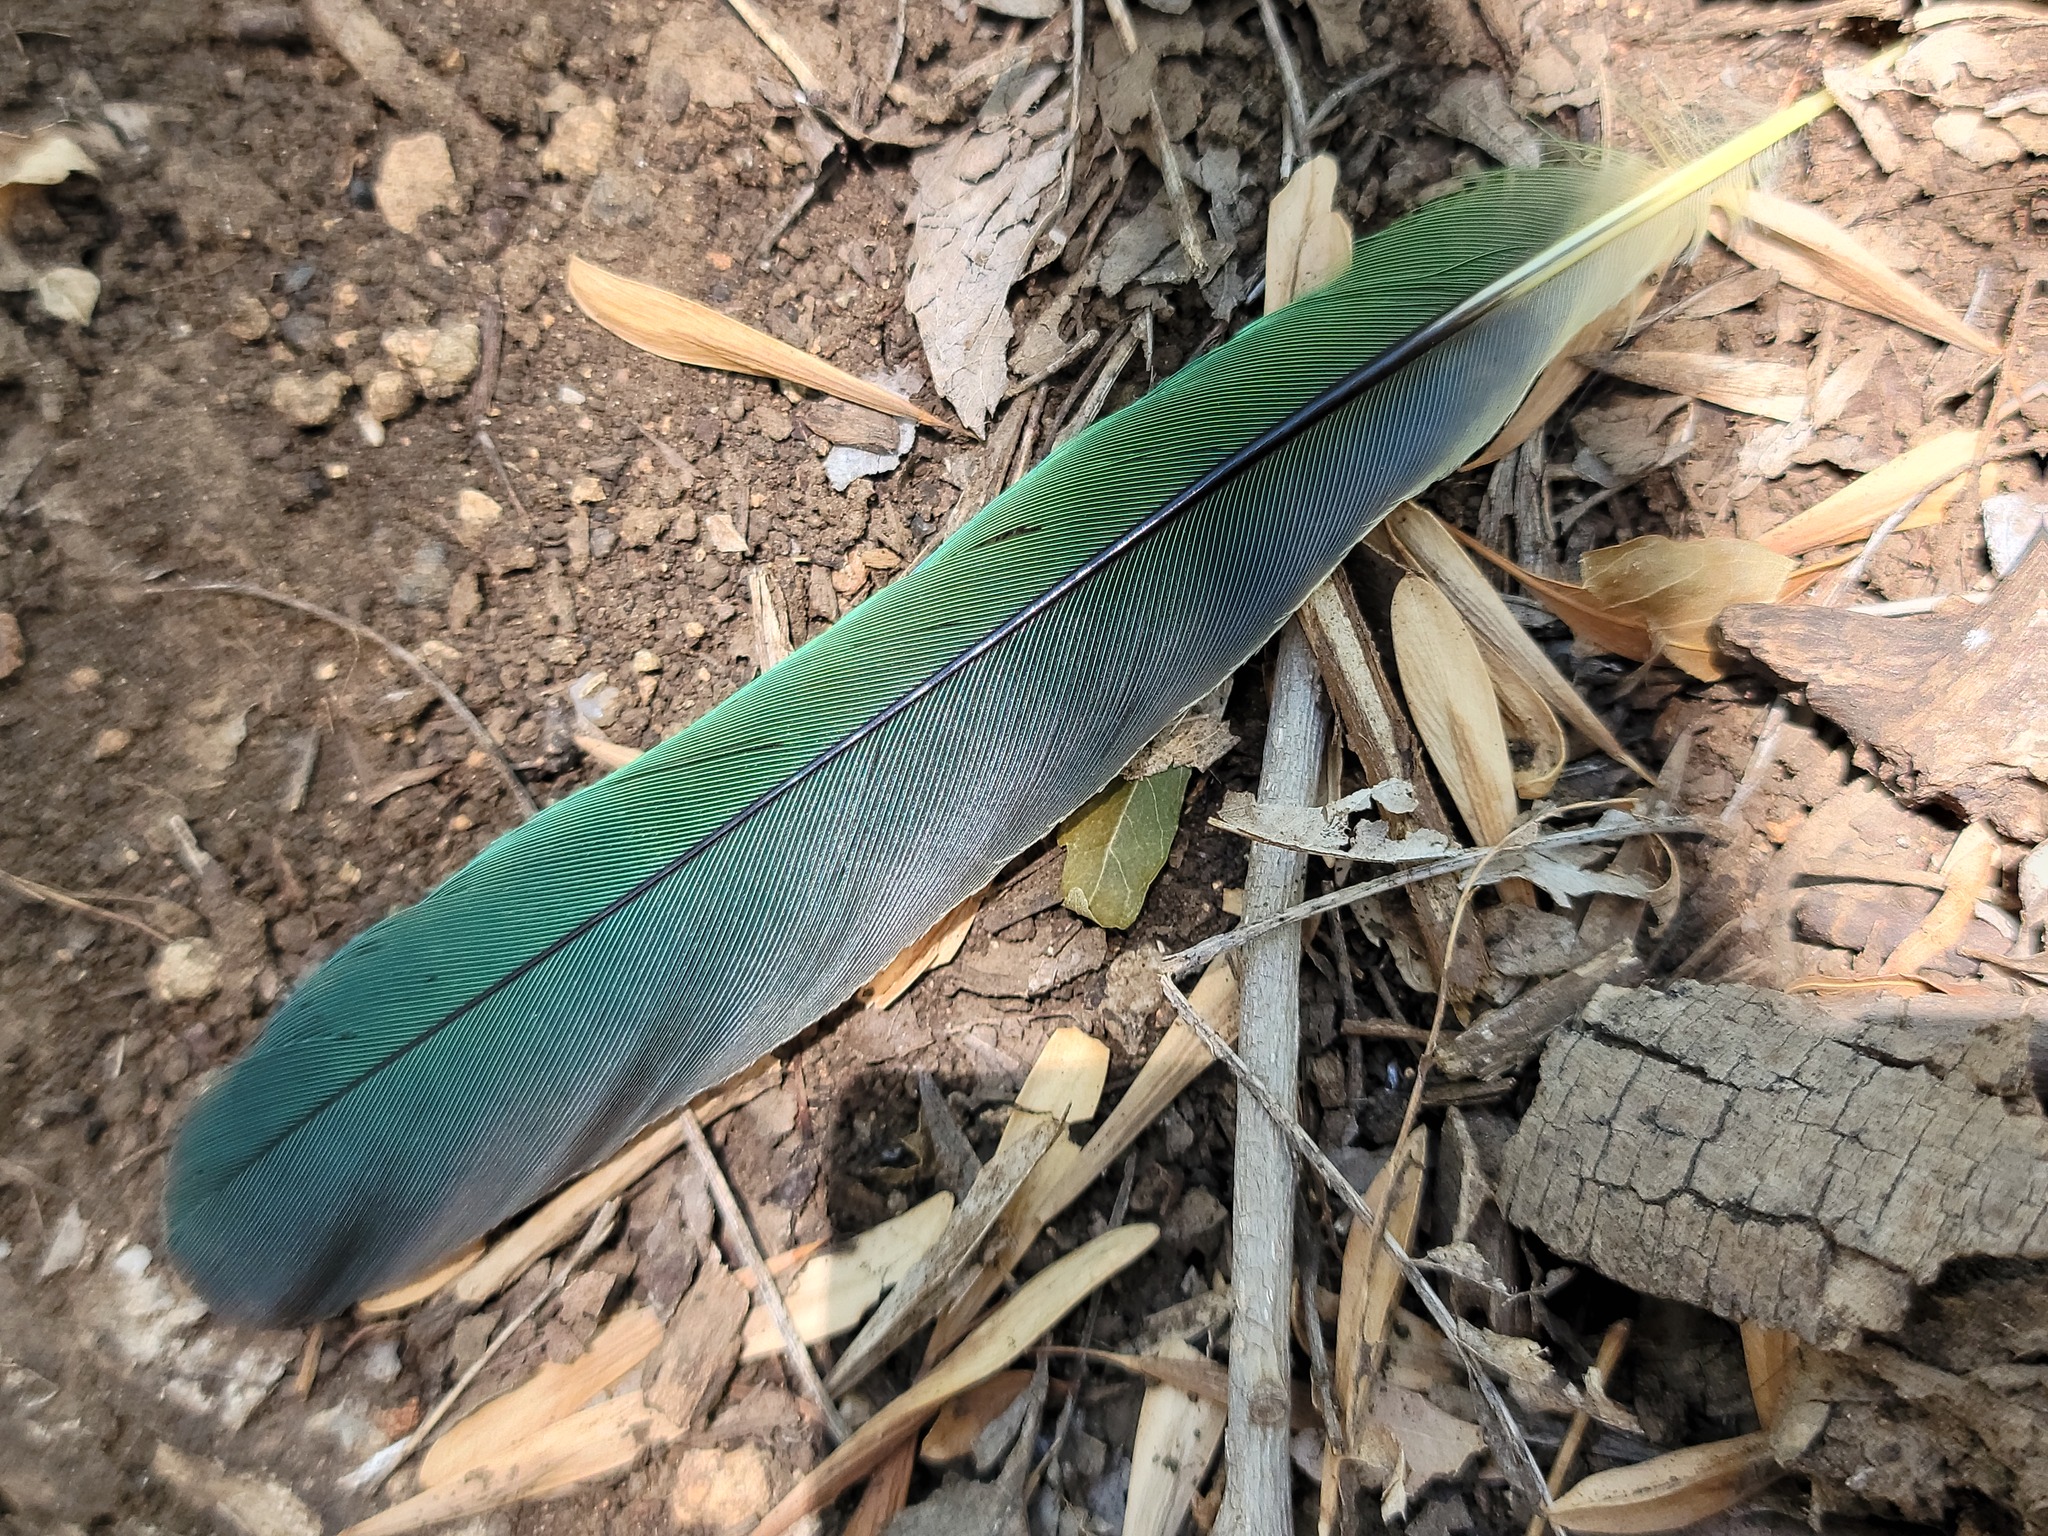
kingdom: Animalia
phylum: Chordata
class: Aves
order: Passeriformes
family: Corvidae
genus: Cyanocorax
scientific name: Cyanocorax yncas
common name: Green jay
